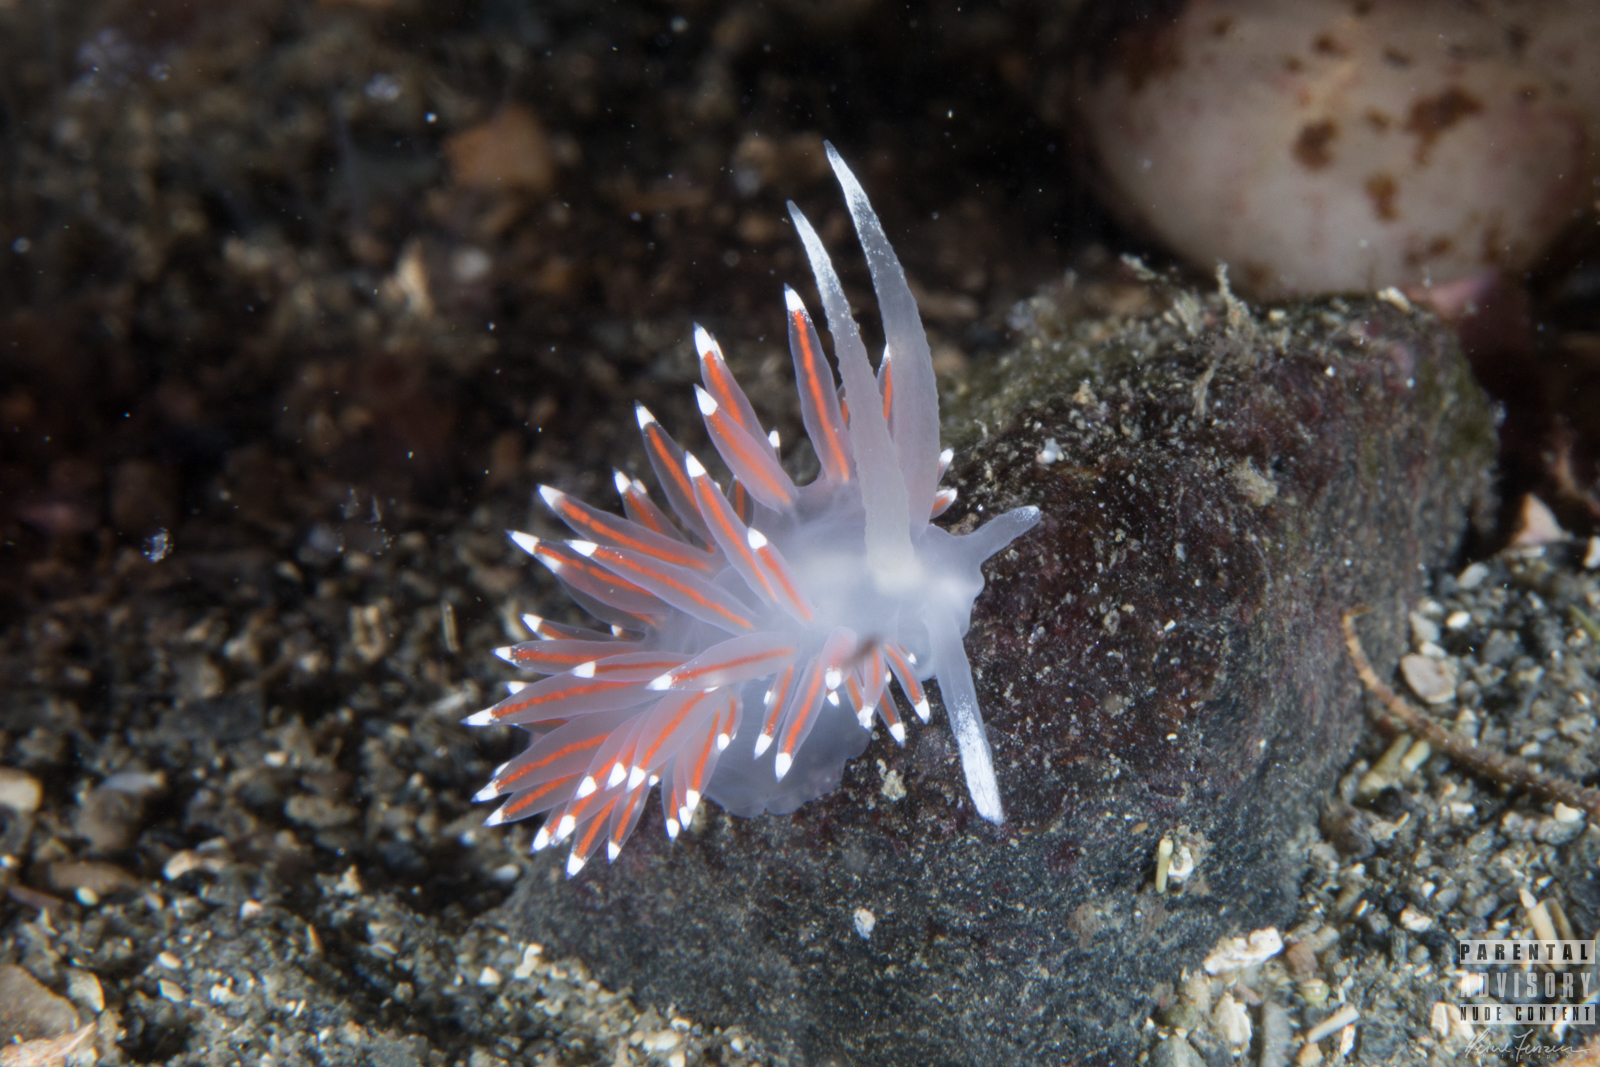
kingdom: Animalia
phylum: Mollusca
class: Gastropoda
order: Nudibranchia
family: Coryphellidae
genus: Coryphella
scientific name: Coryphella browni
